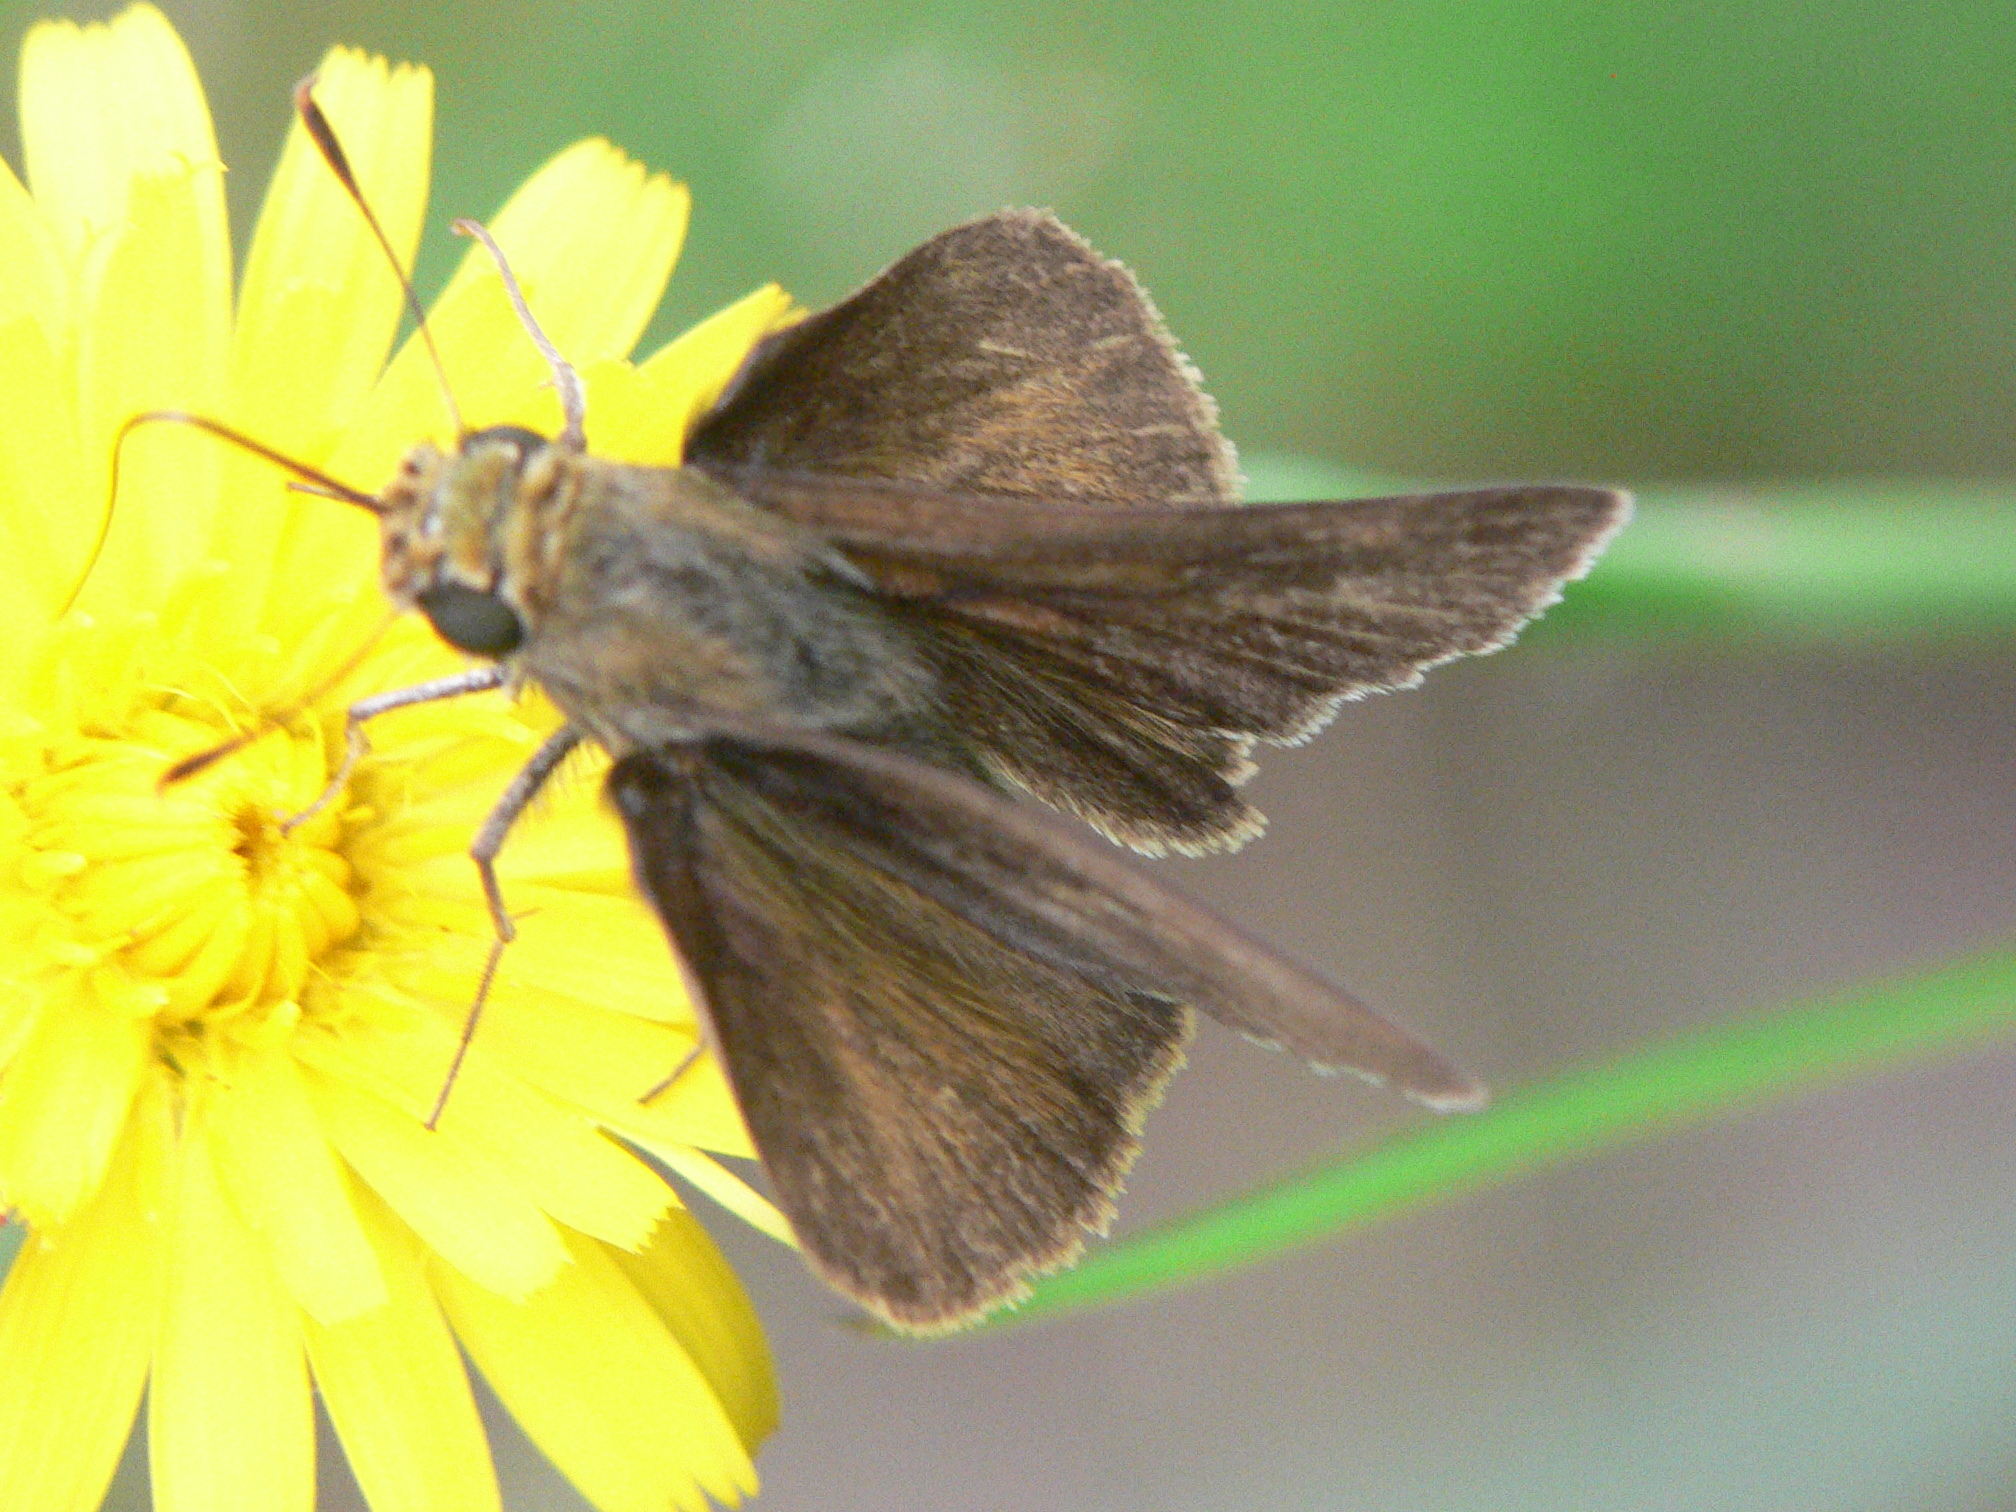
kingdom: Animalia
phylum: Arthropoda
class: Insecta
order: Lepidoptera
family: Hesperiidae
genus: Euphyes
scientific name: Euphyes vestris
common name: Dun skipper
